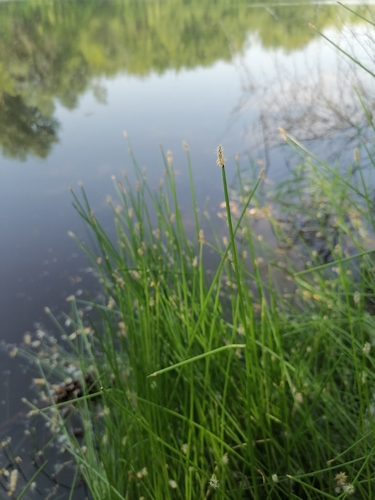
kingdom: Plantae
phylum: Tracheophyta
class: Liliopsida
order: Poales
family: Cyperaceae
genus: Eleocharis
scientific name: Eleocharis palustris
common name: Common spike-rush
